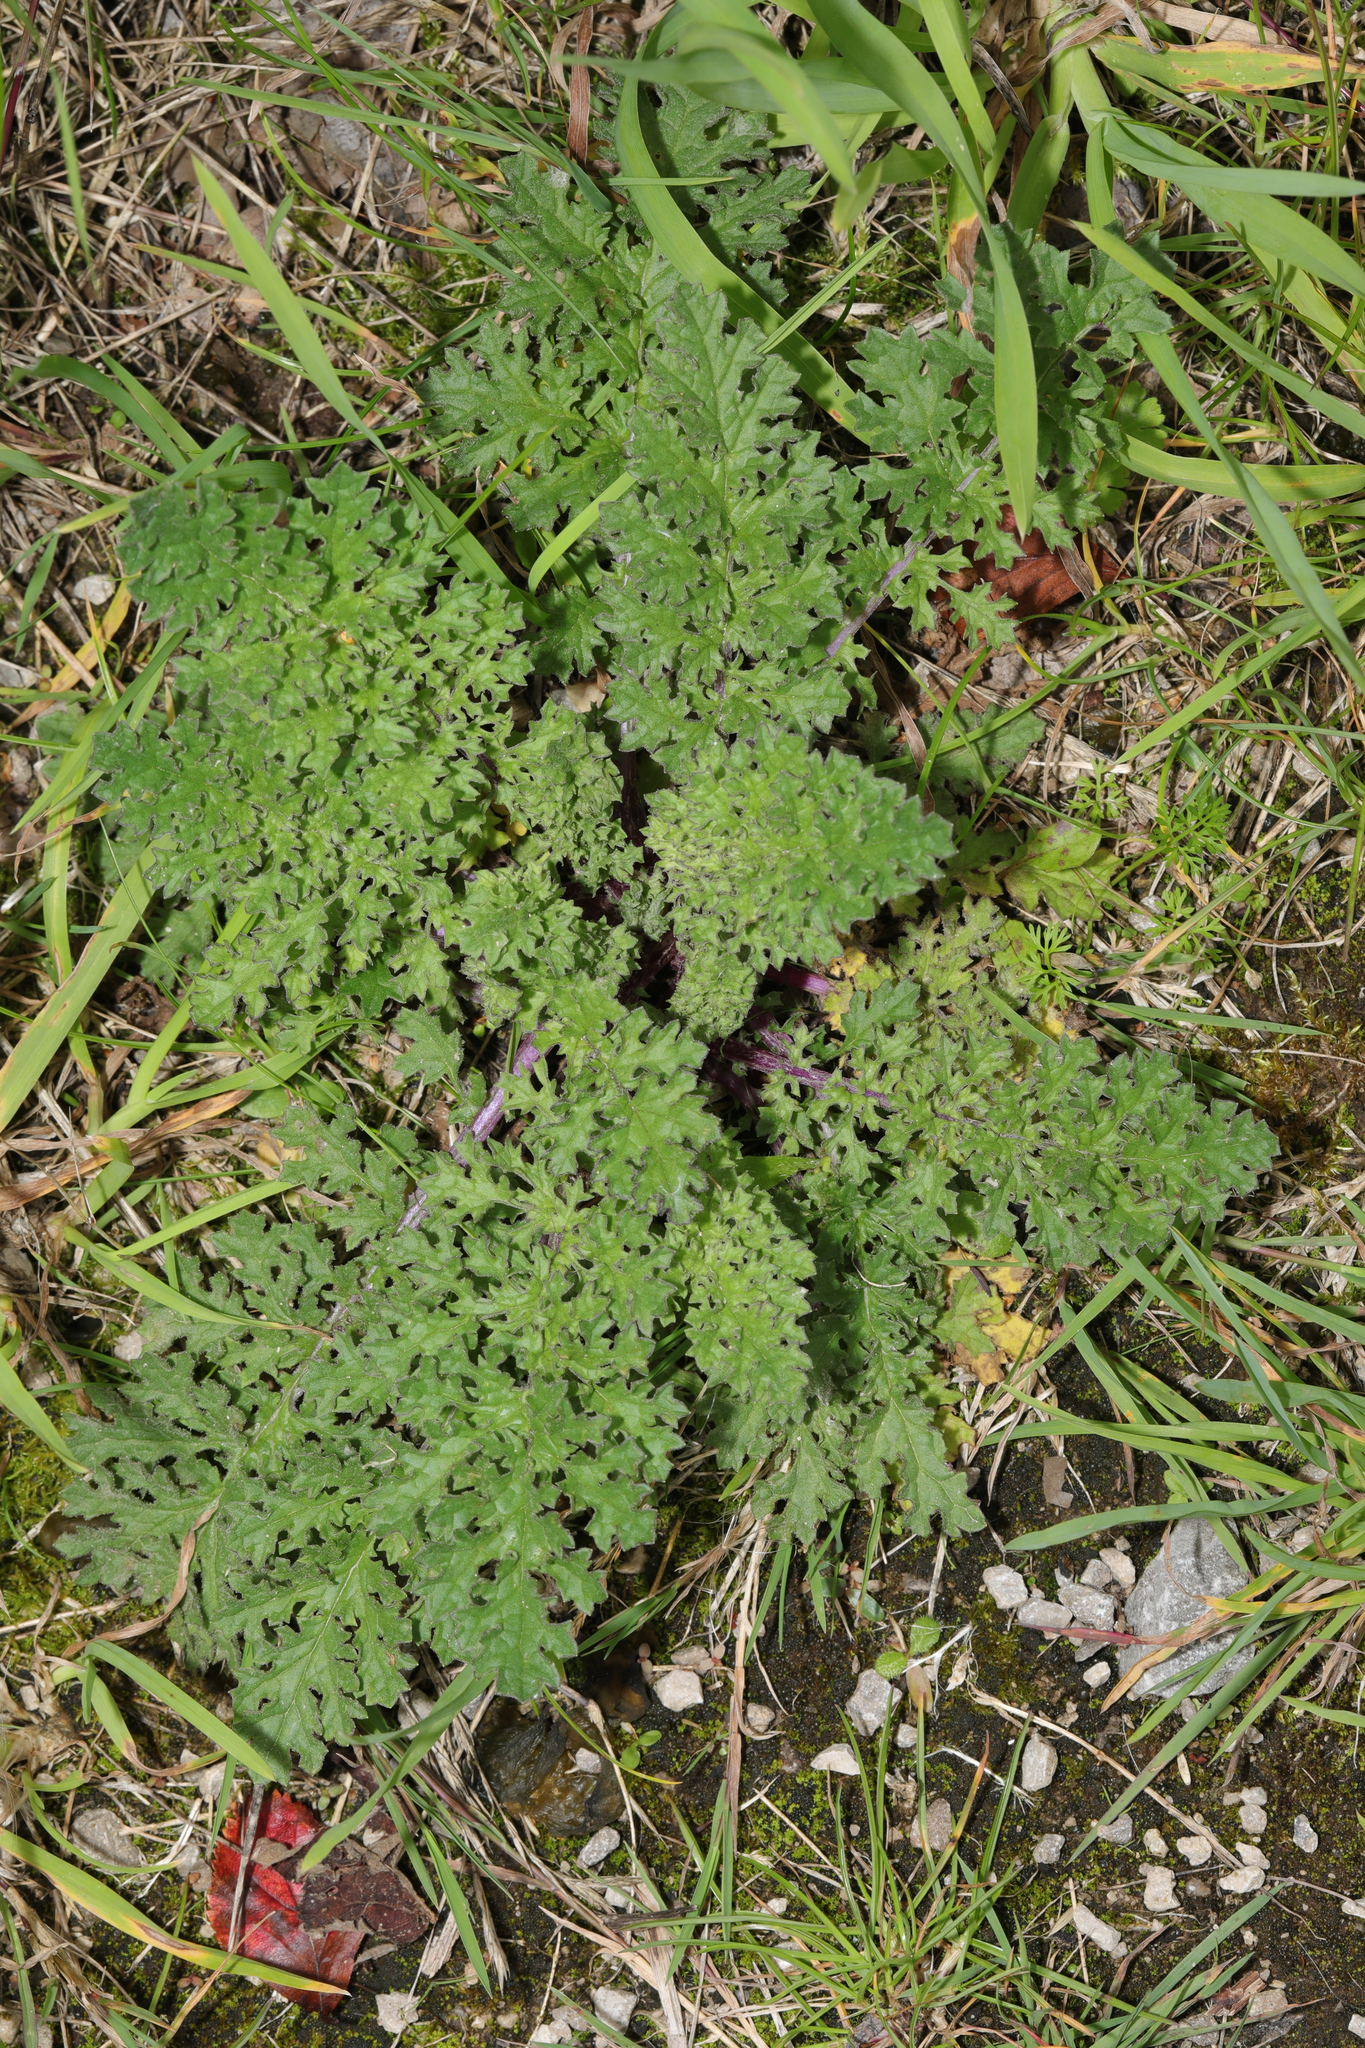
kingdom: Plantae
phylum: Tracheophyta
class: Magnoliopsida
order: Asterales
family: Asteraceae
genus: Jacobaea
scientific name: Jacobaea vulgaris
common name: Stinking willie
